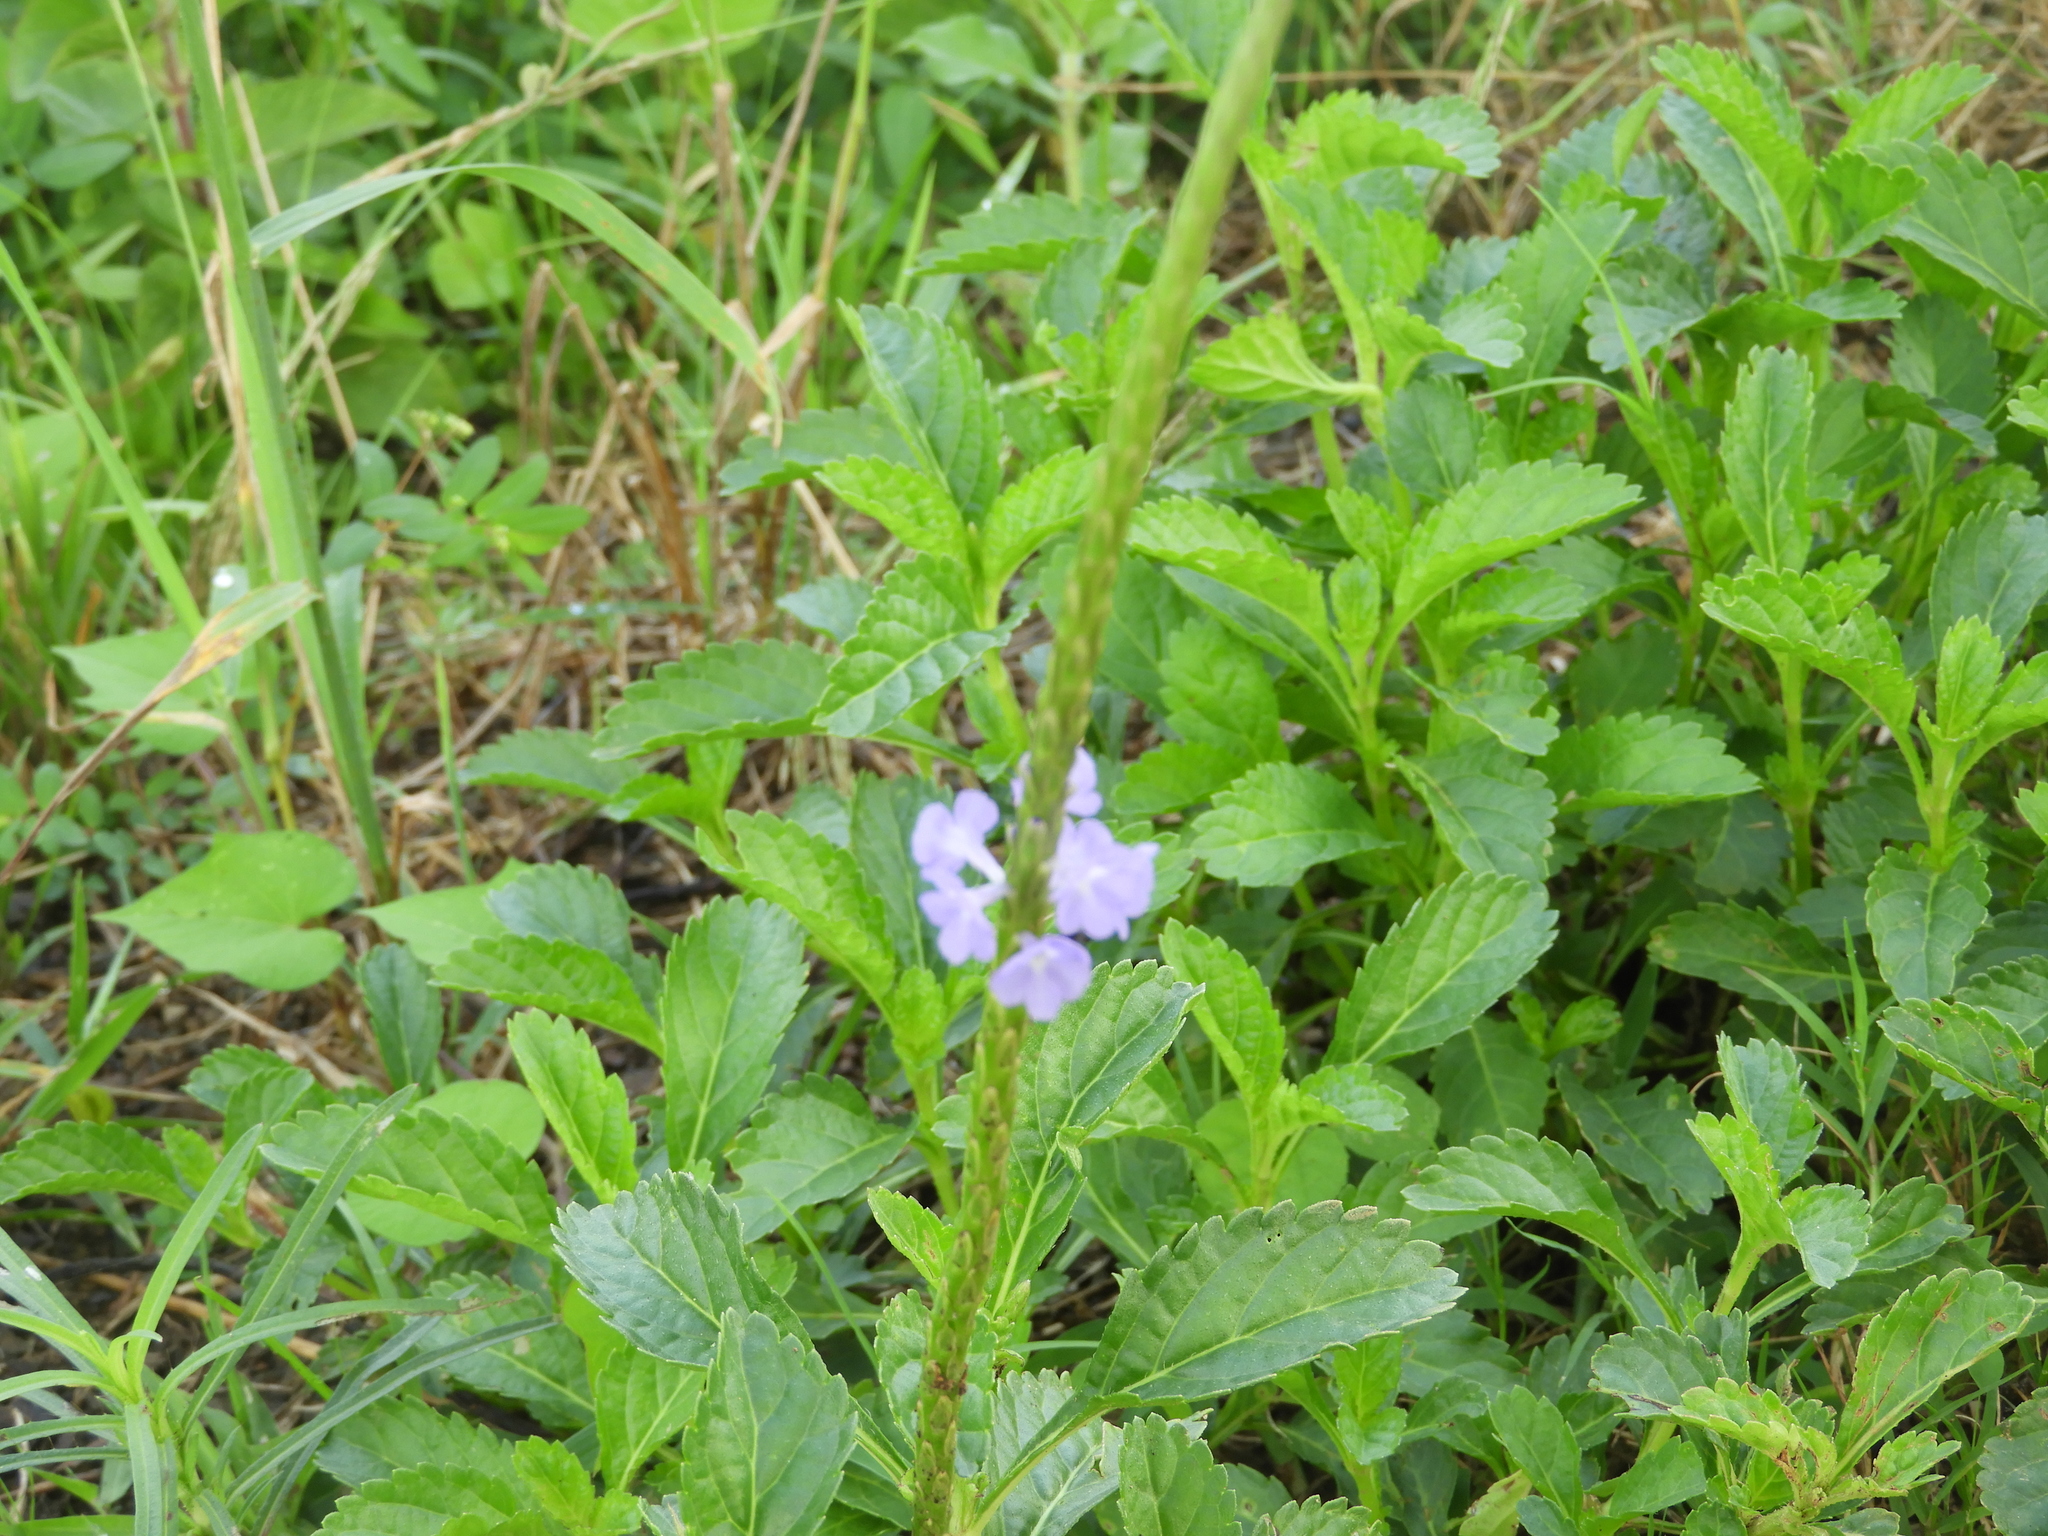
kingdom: Plantae
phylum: Tracheophyta
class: Magnoliopsida
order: Lamiales
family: Verbenaceae
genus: Stachytarpheta
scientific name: Stachytarpheta jamaicensis
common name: Light-blue snakeweed
